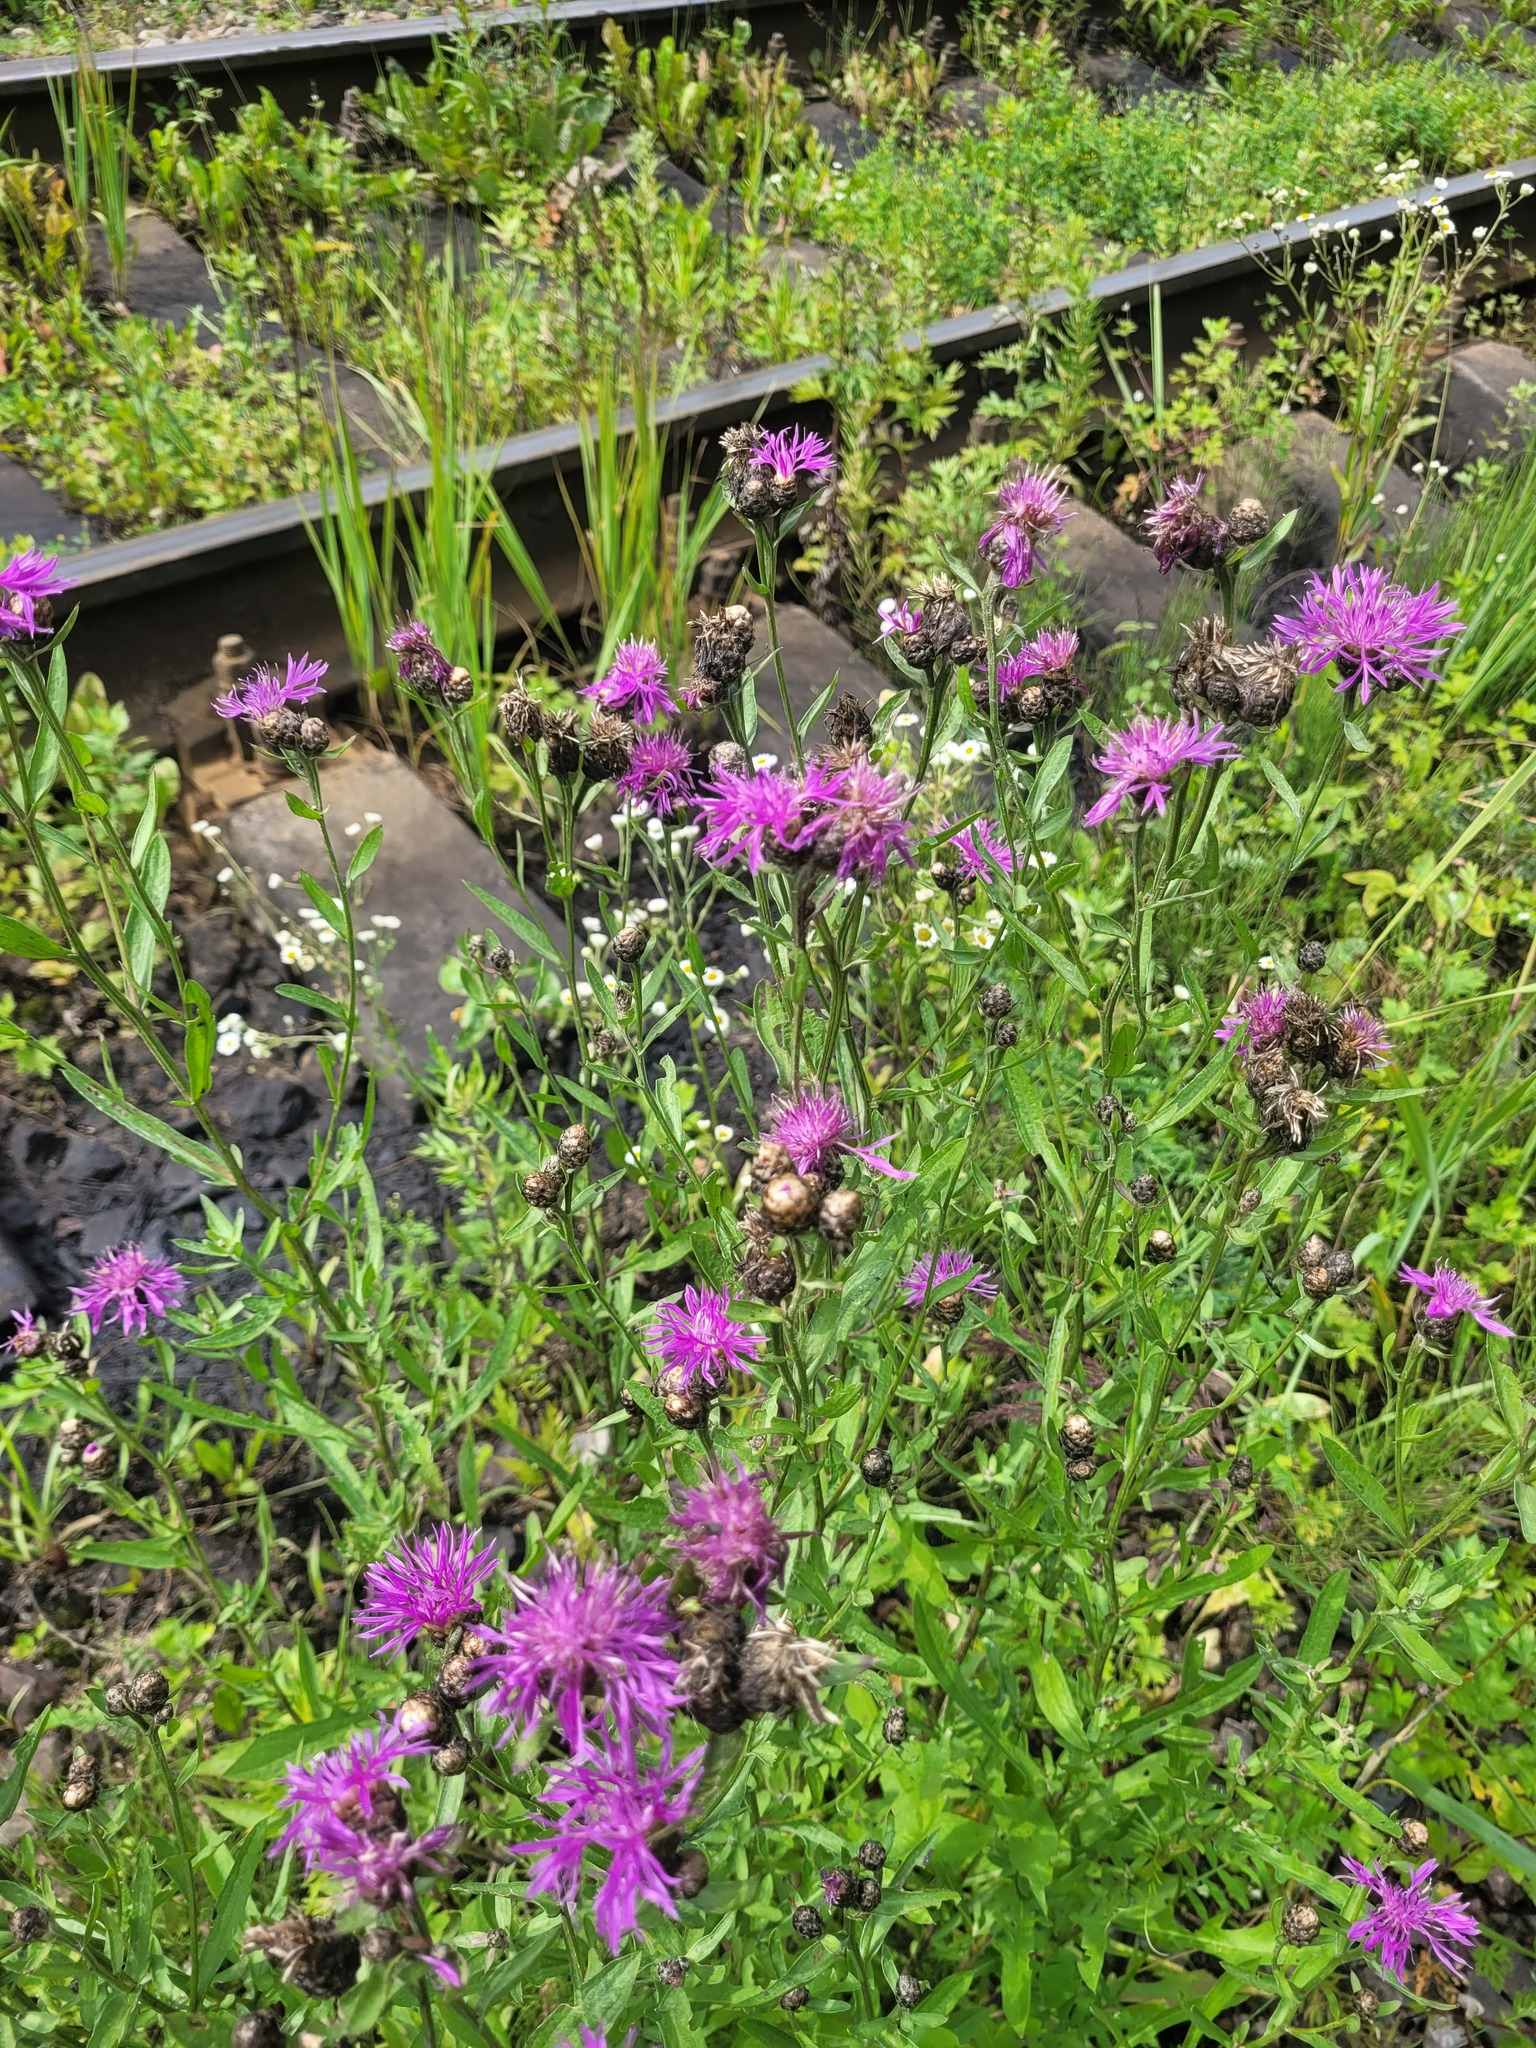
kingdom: Plantae
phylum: Tracheophyta
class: Magnoliopsida
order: Asterales
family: Asteraceae
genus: Centaurea
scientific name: Centaurea jacea
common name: Brown knapweed
